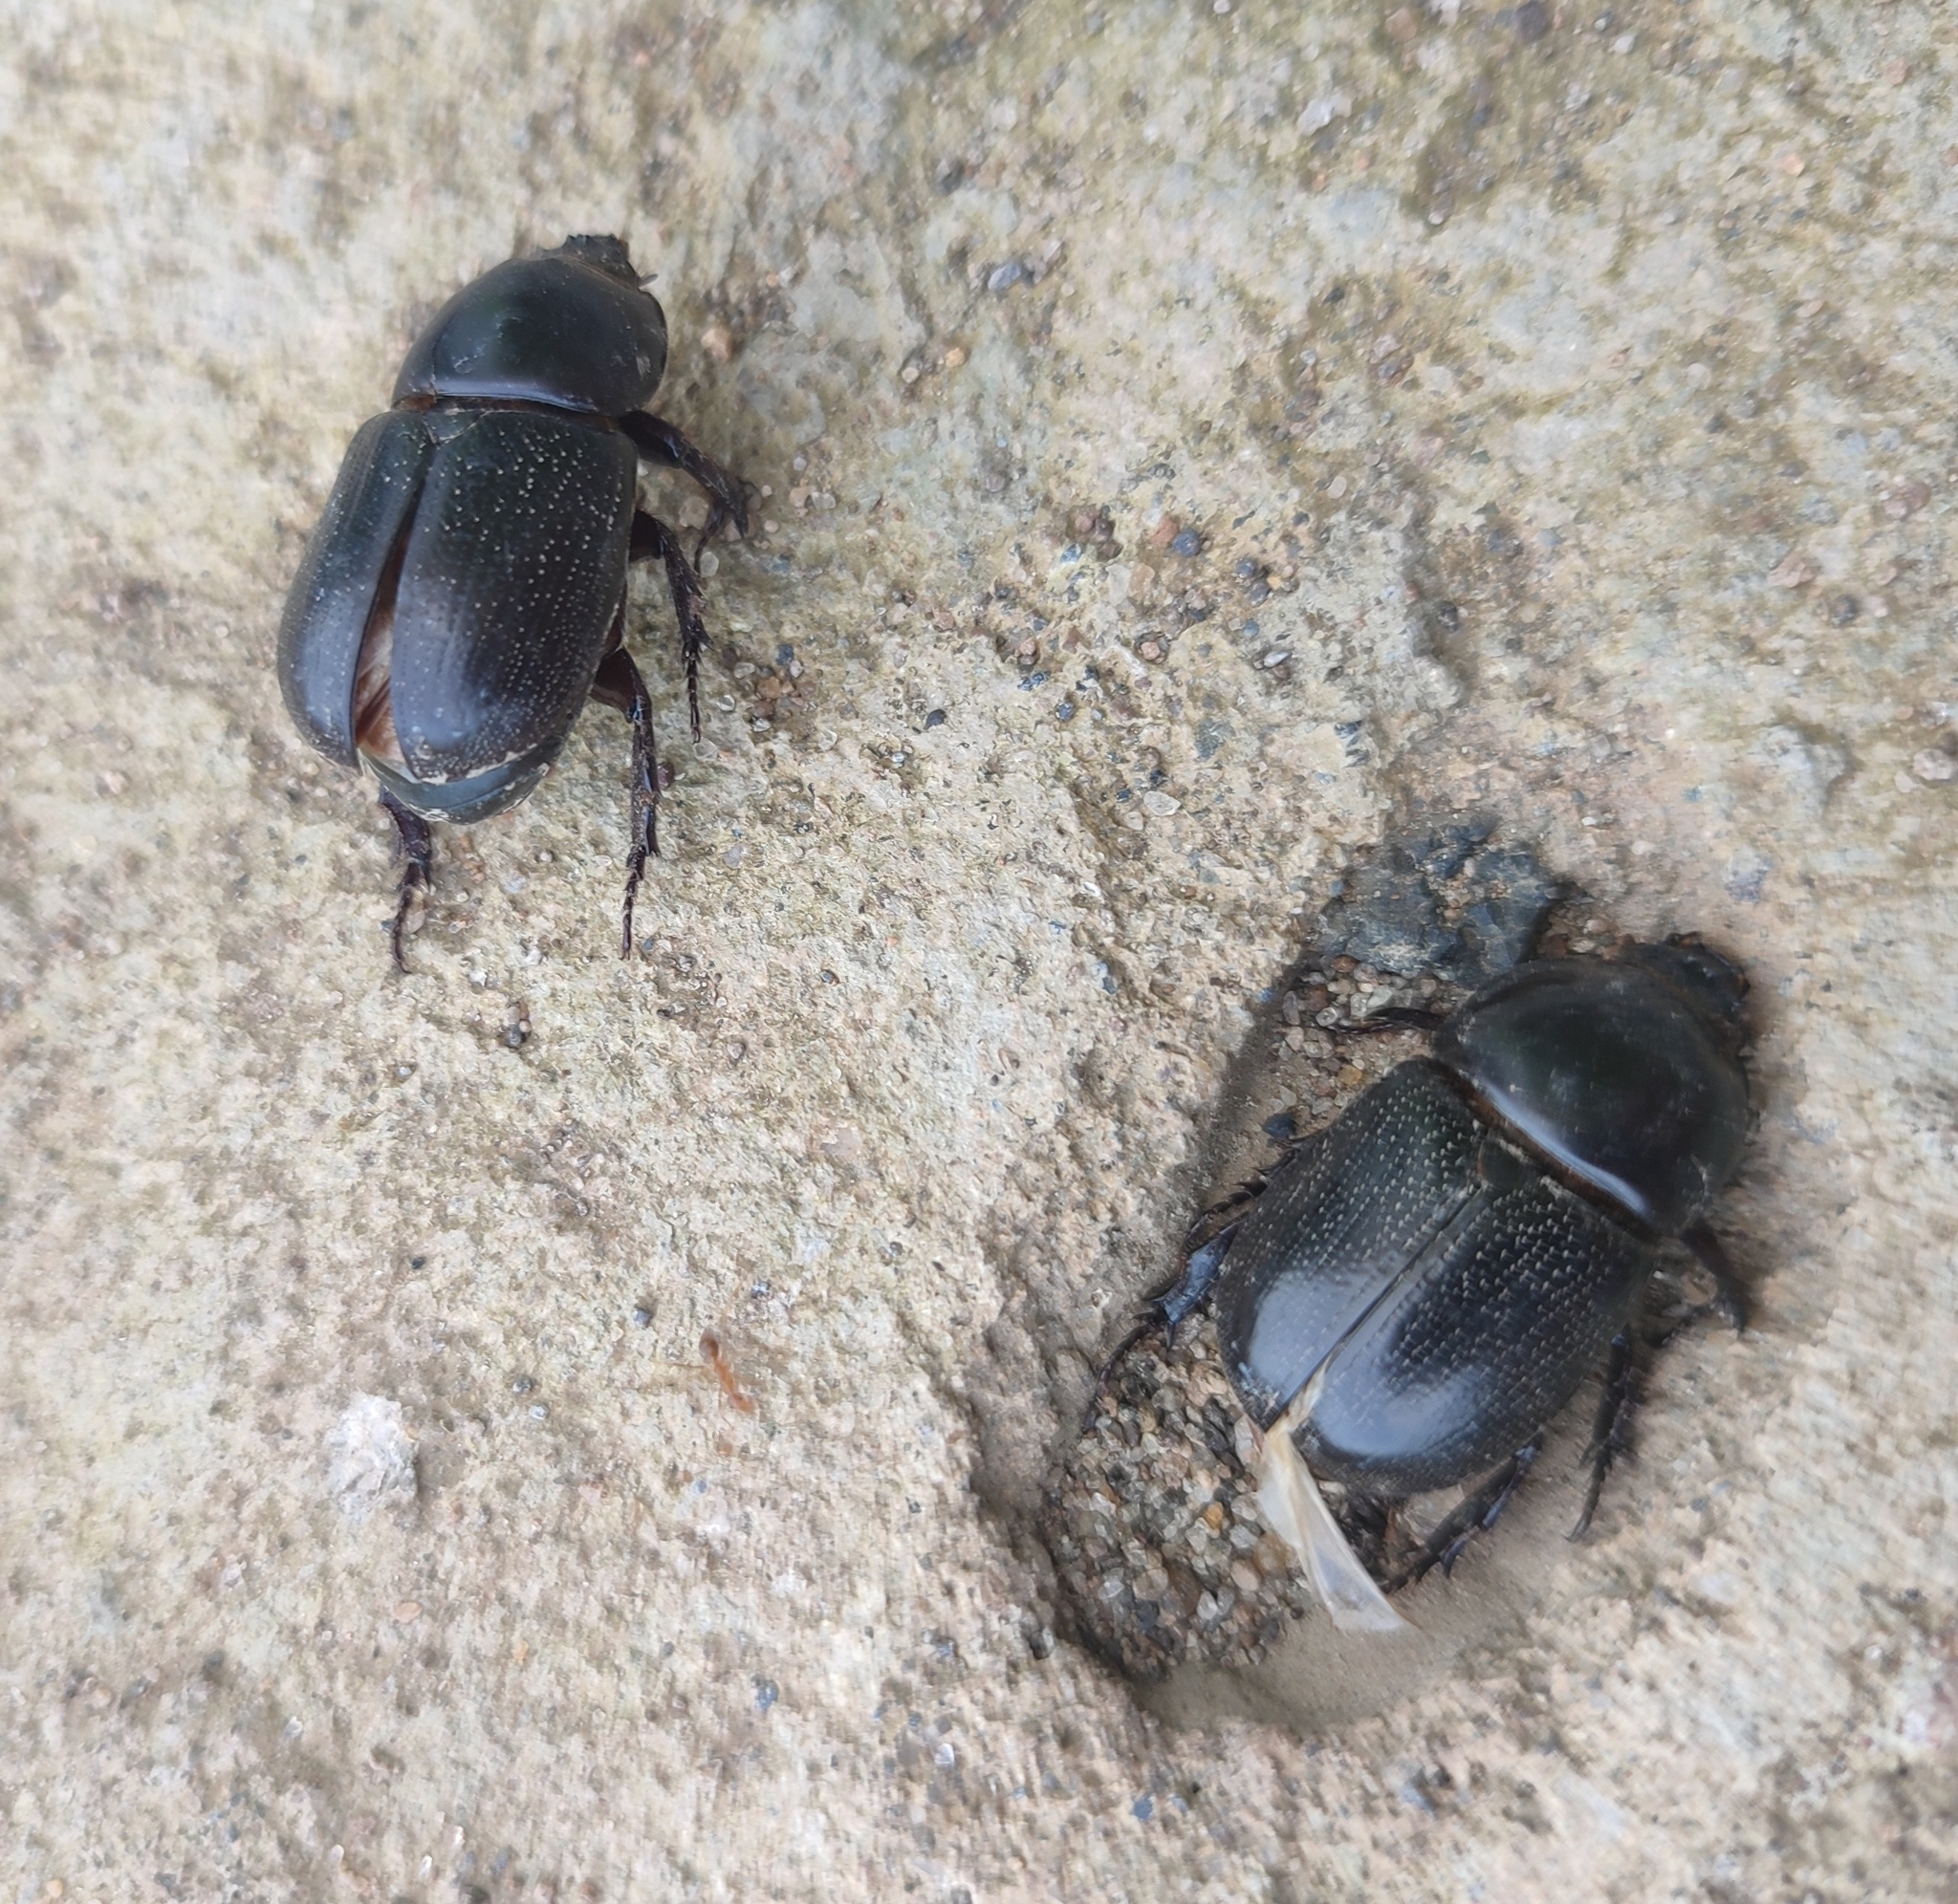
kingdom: Animalia
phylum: Arthropoda
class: Insecta
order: Coleoptera
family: Scarabaeidae
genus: Papuana
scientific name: Papuana lansbergei
